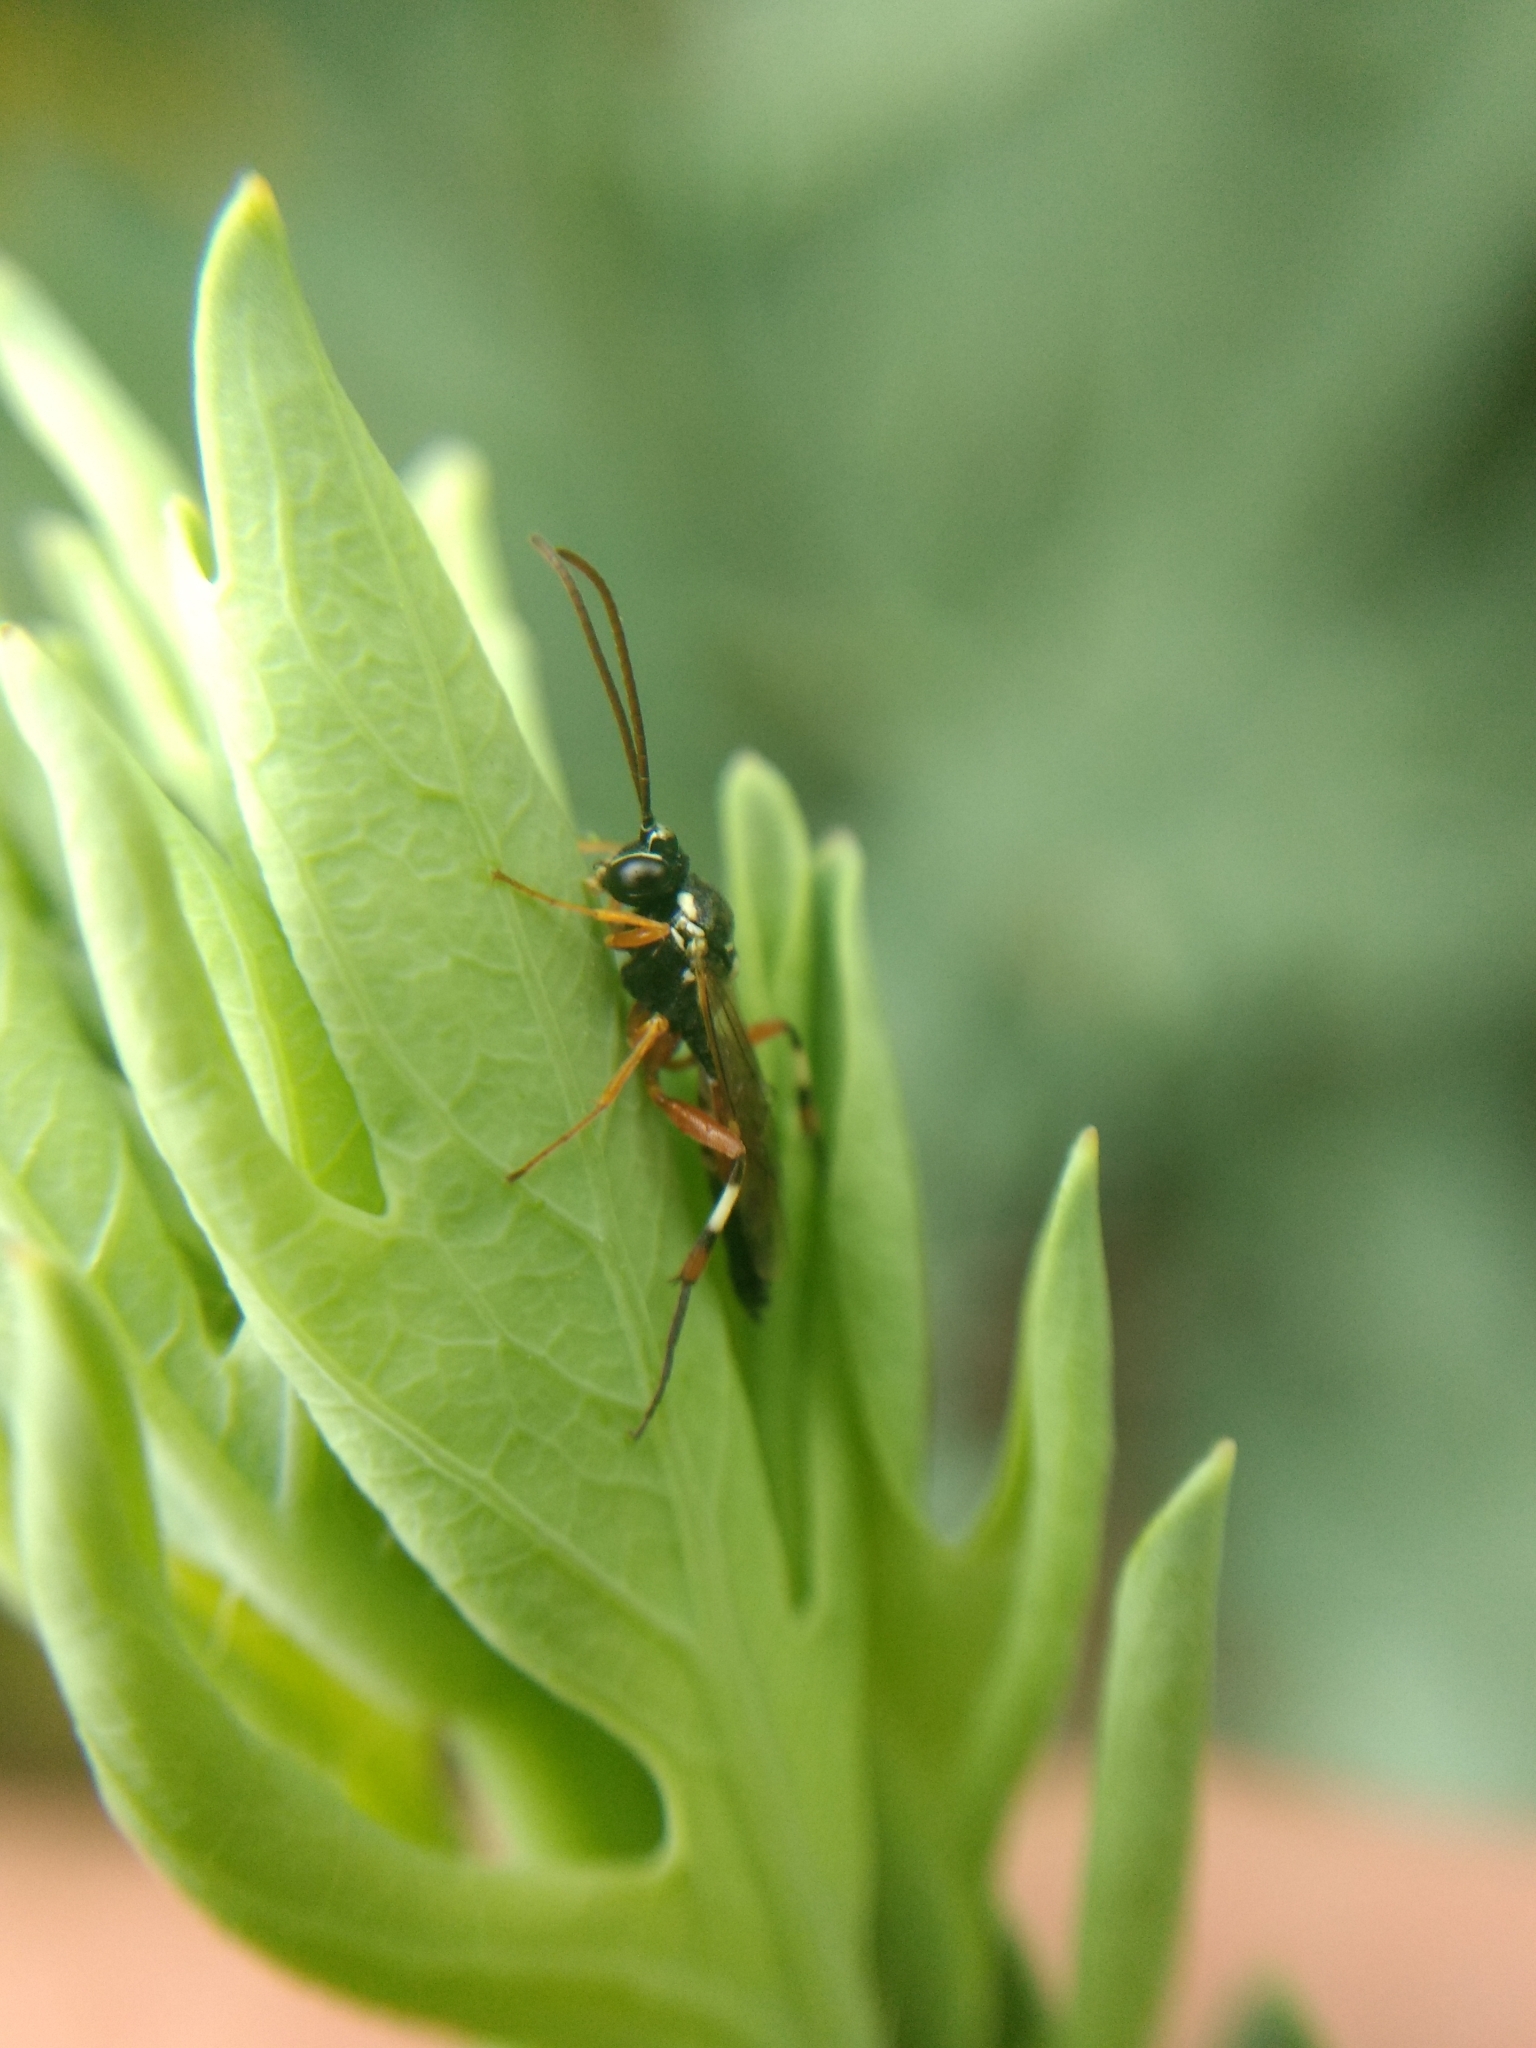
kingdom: Animalia
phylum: Arthropoda
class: Insecta
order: Hymenoptera
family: Ichneumonidae
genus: Diplazon
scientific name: Diplazon laetatorius
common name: Parasitoid wasp
